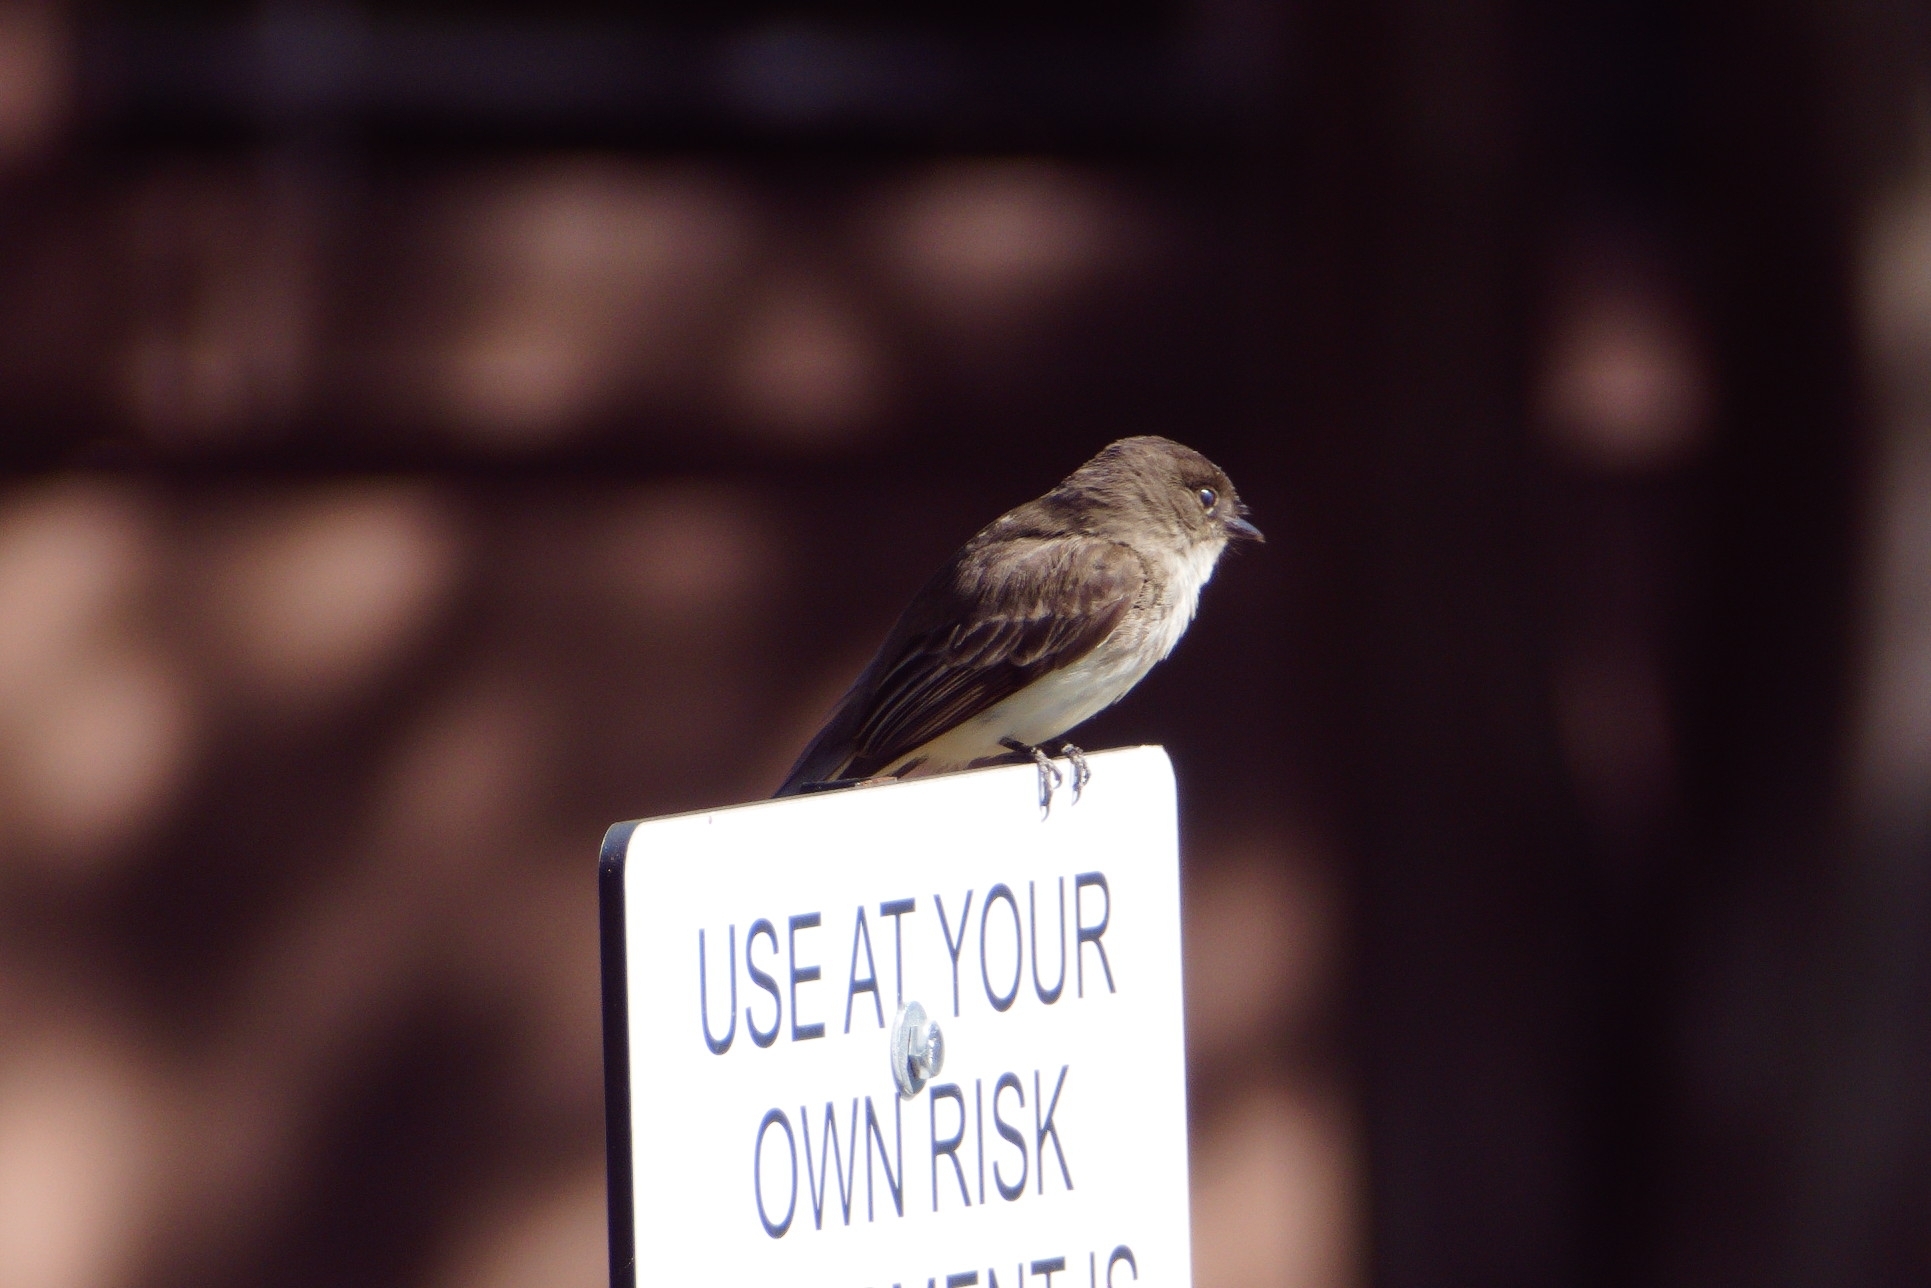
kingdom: Animalia
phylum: Chordata
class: Aves
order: Passeriformes
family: Tyrannidae
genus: Sayornis
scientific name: Sayornis phoebe
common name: Eastern phoebe
